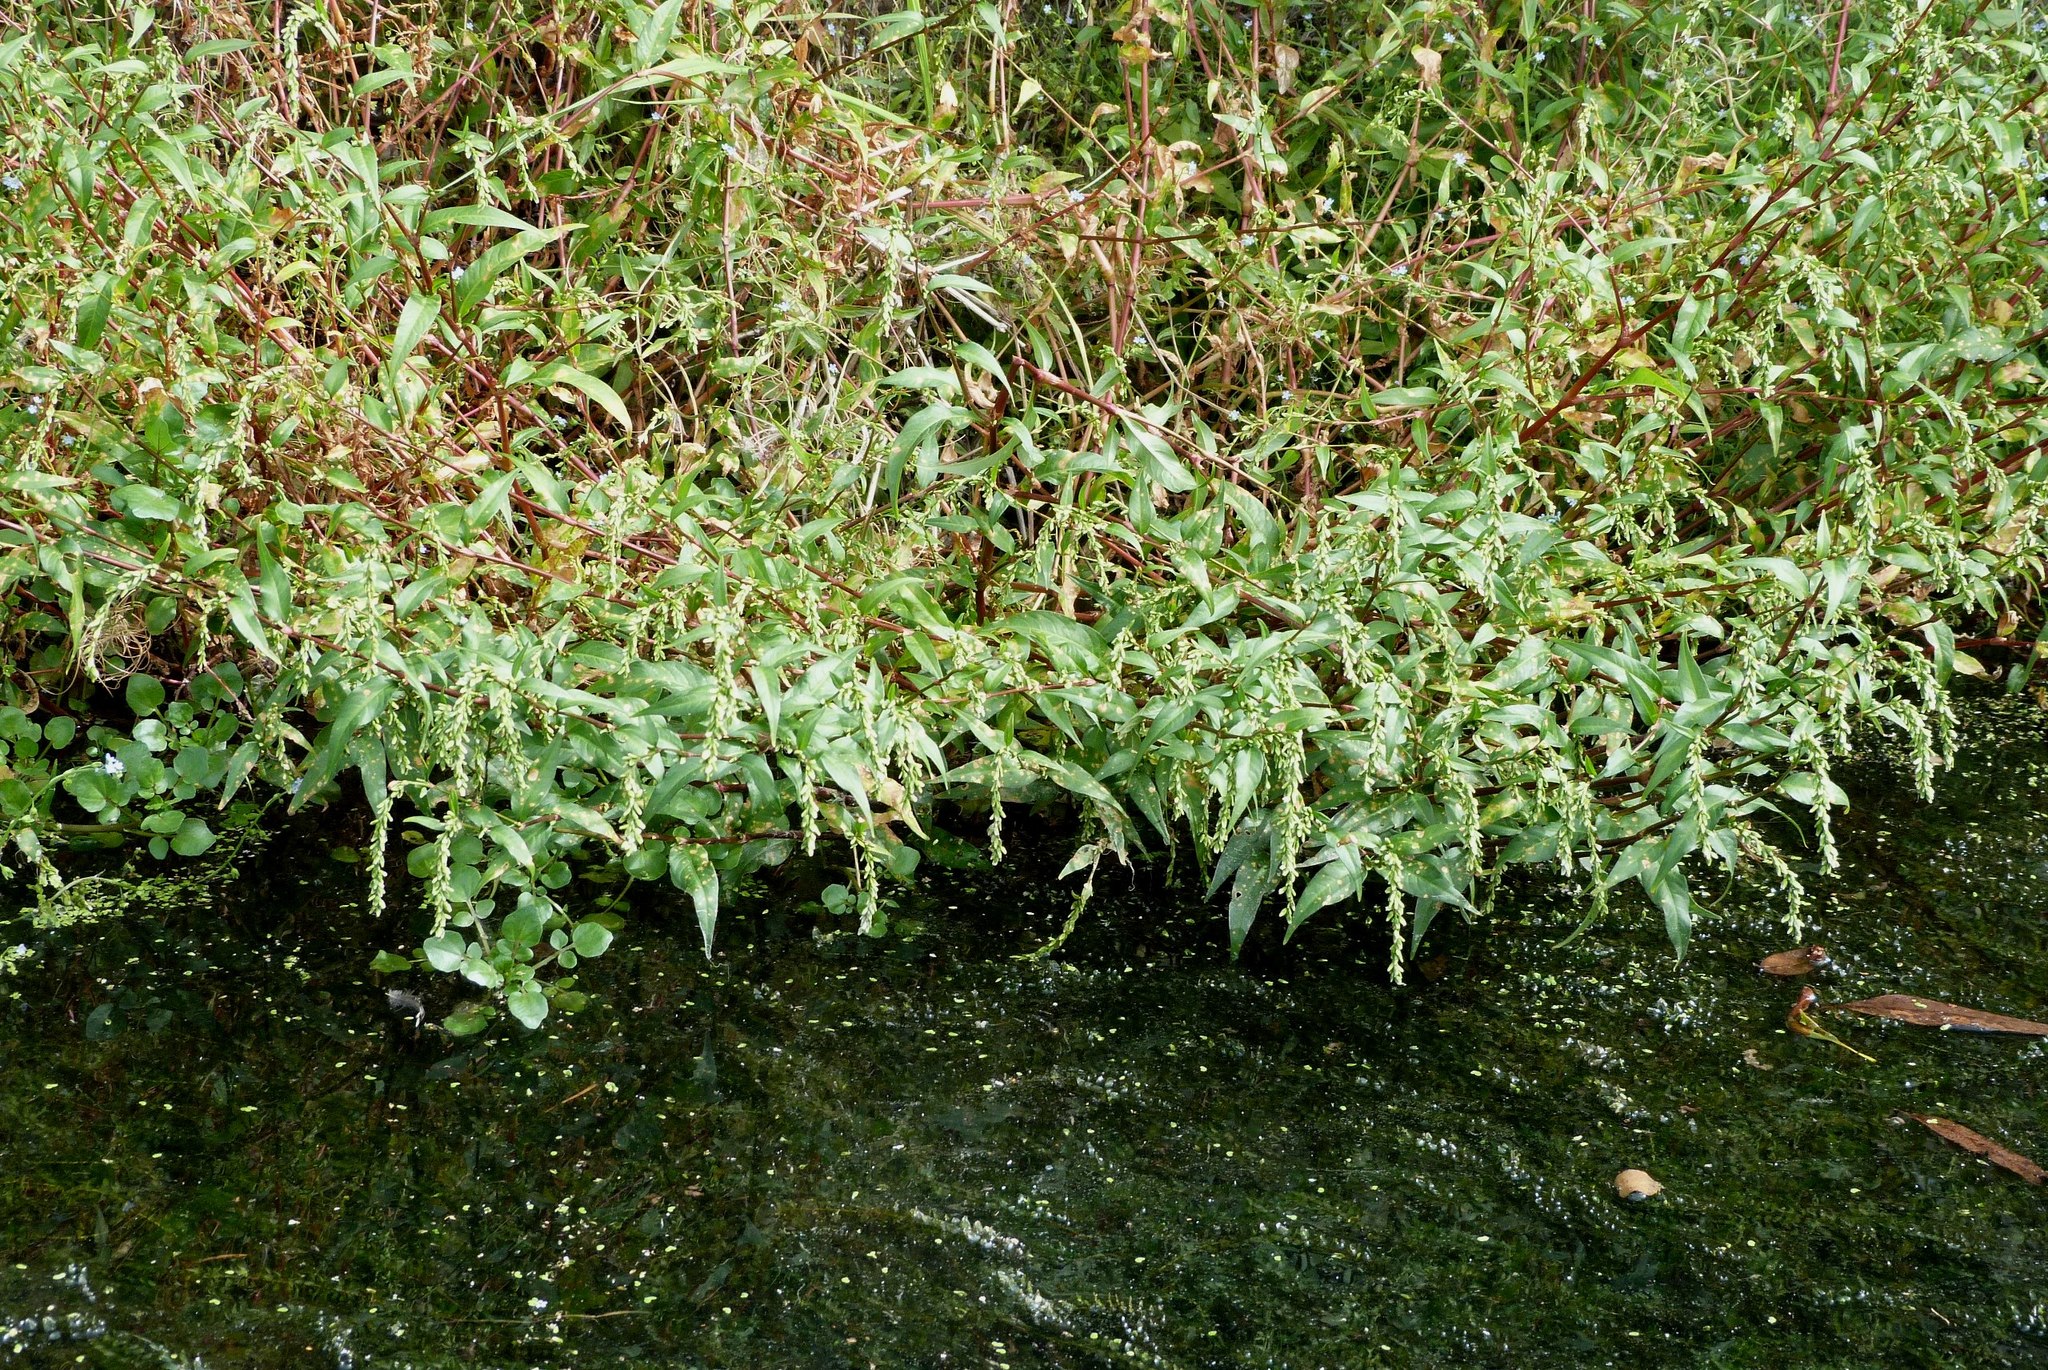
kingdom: Plantae
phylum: Tracheophyta
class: Magnoliopsida
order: Caryophyllales
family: Polygonaceae
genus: Persicaria
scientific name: Persicaria decipiens
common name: Willow-weed
